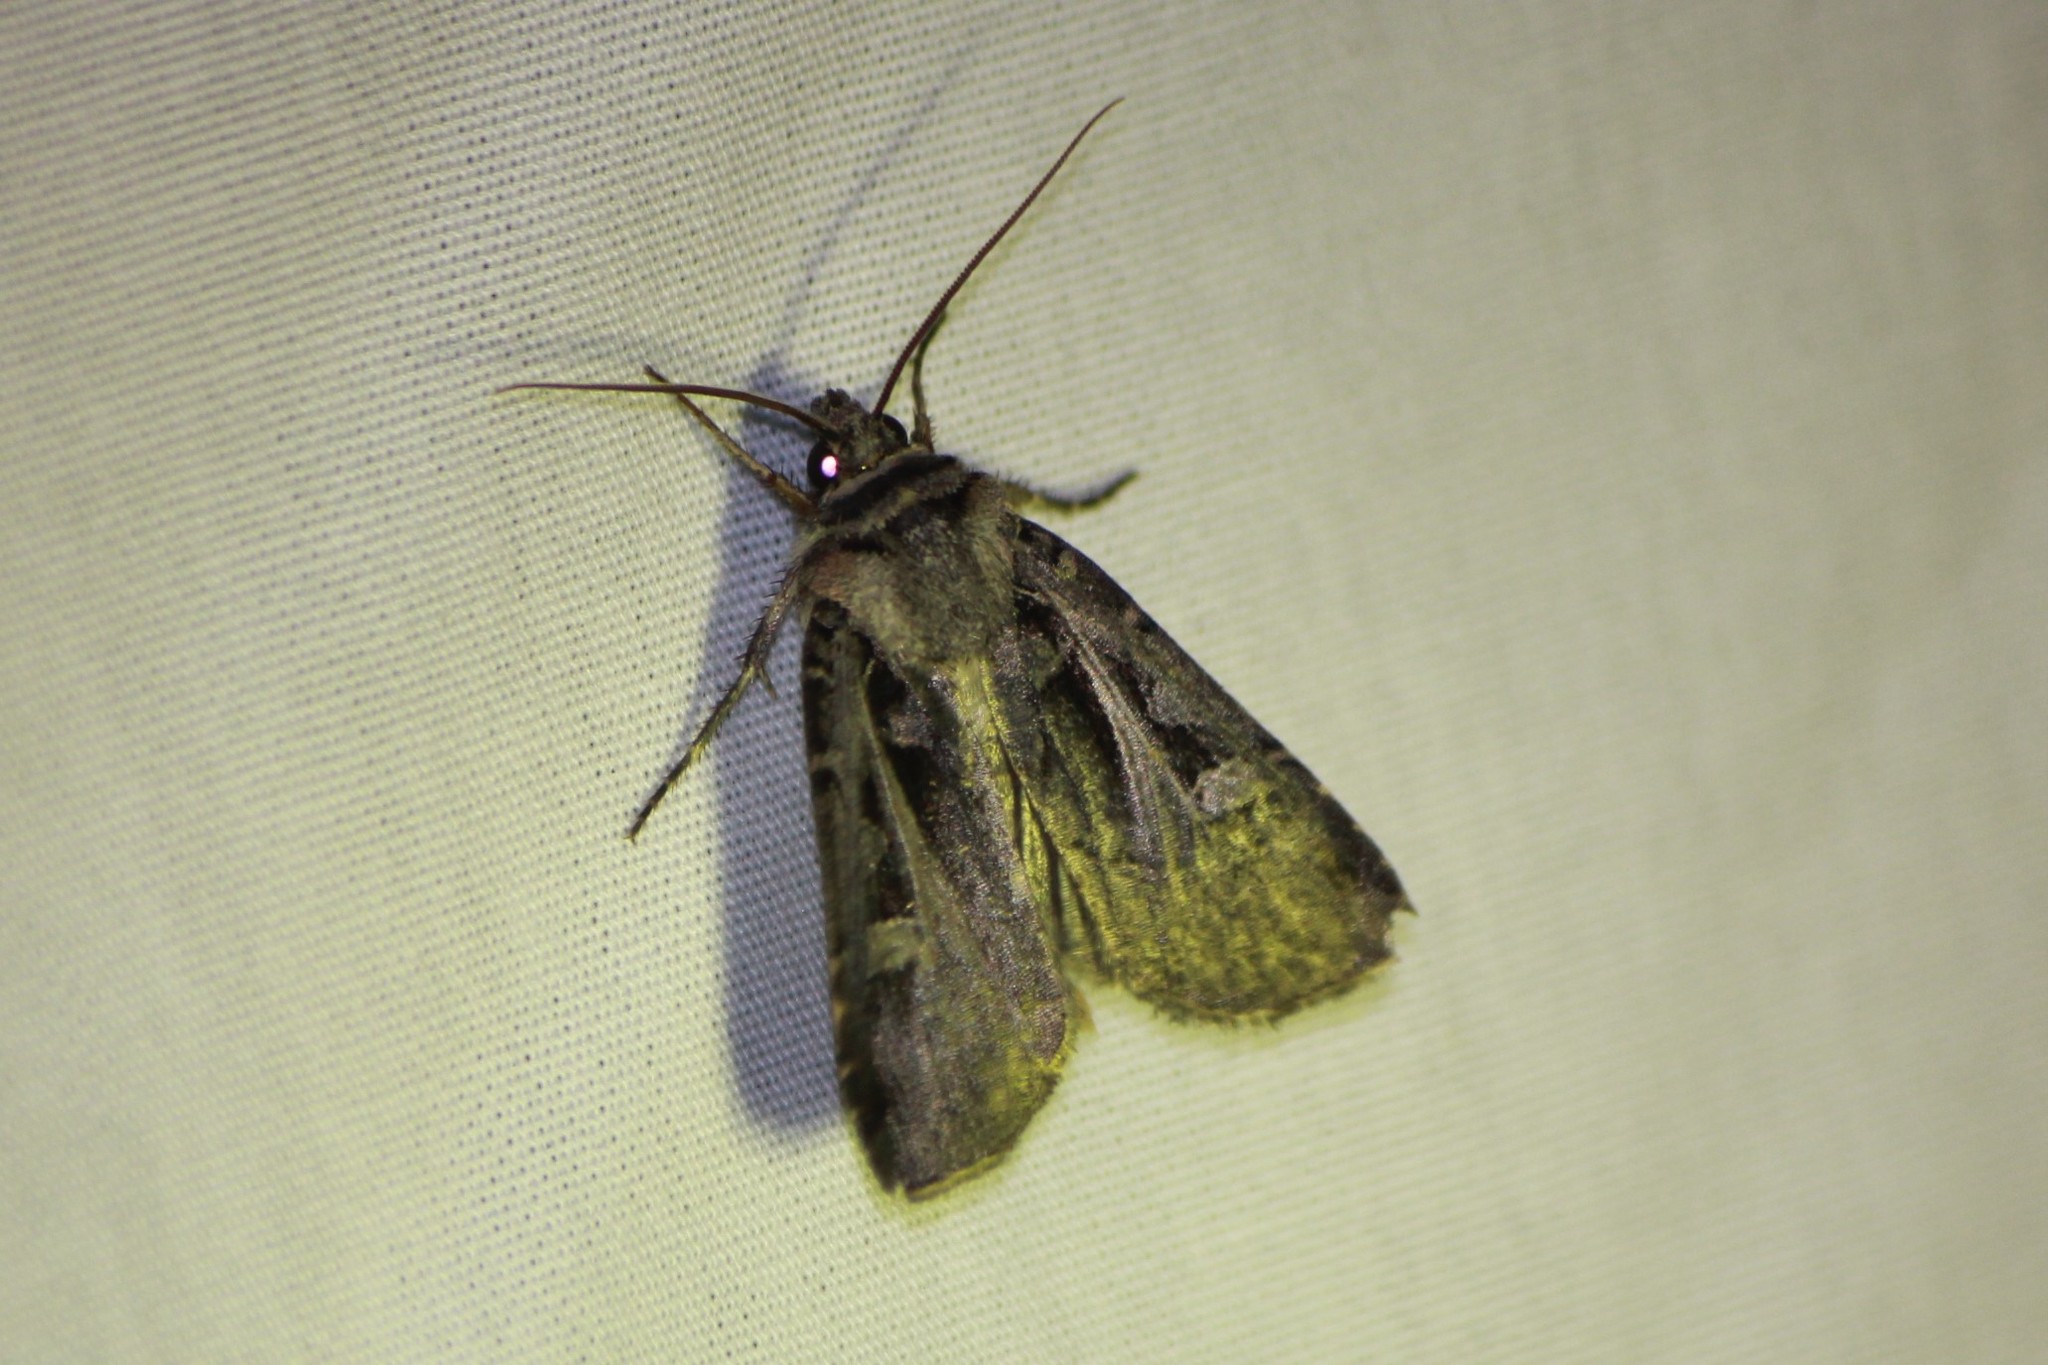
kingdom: Animalia
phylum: Arthropoda
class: Insecta
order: Lepidoptera
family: Noctuidae
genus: Feltia
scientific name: Feltia herilis
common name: Master's dart
